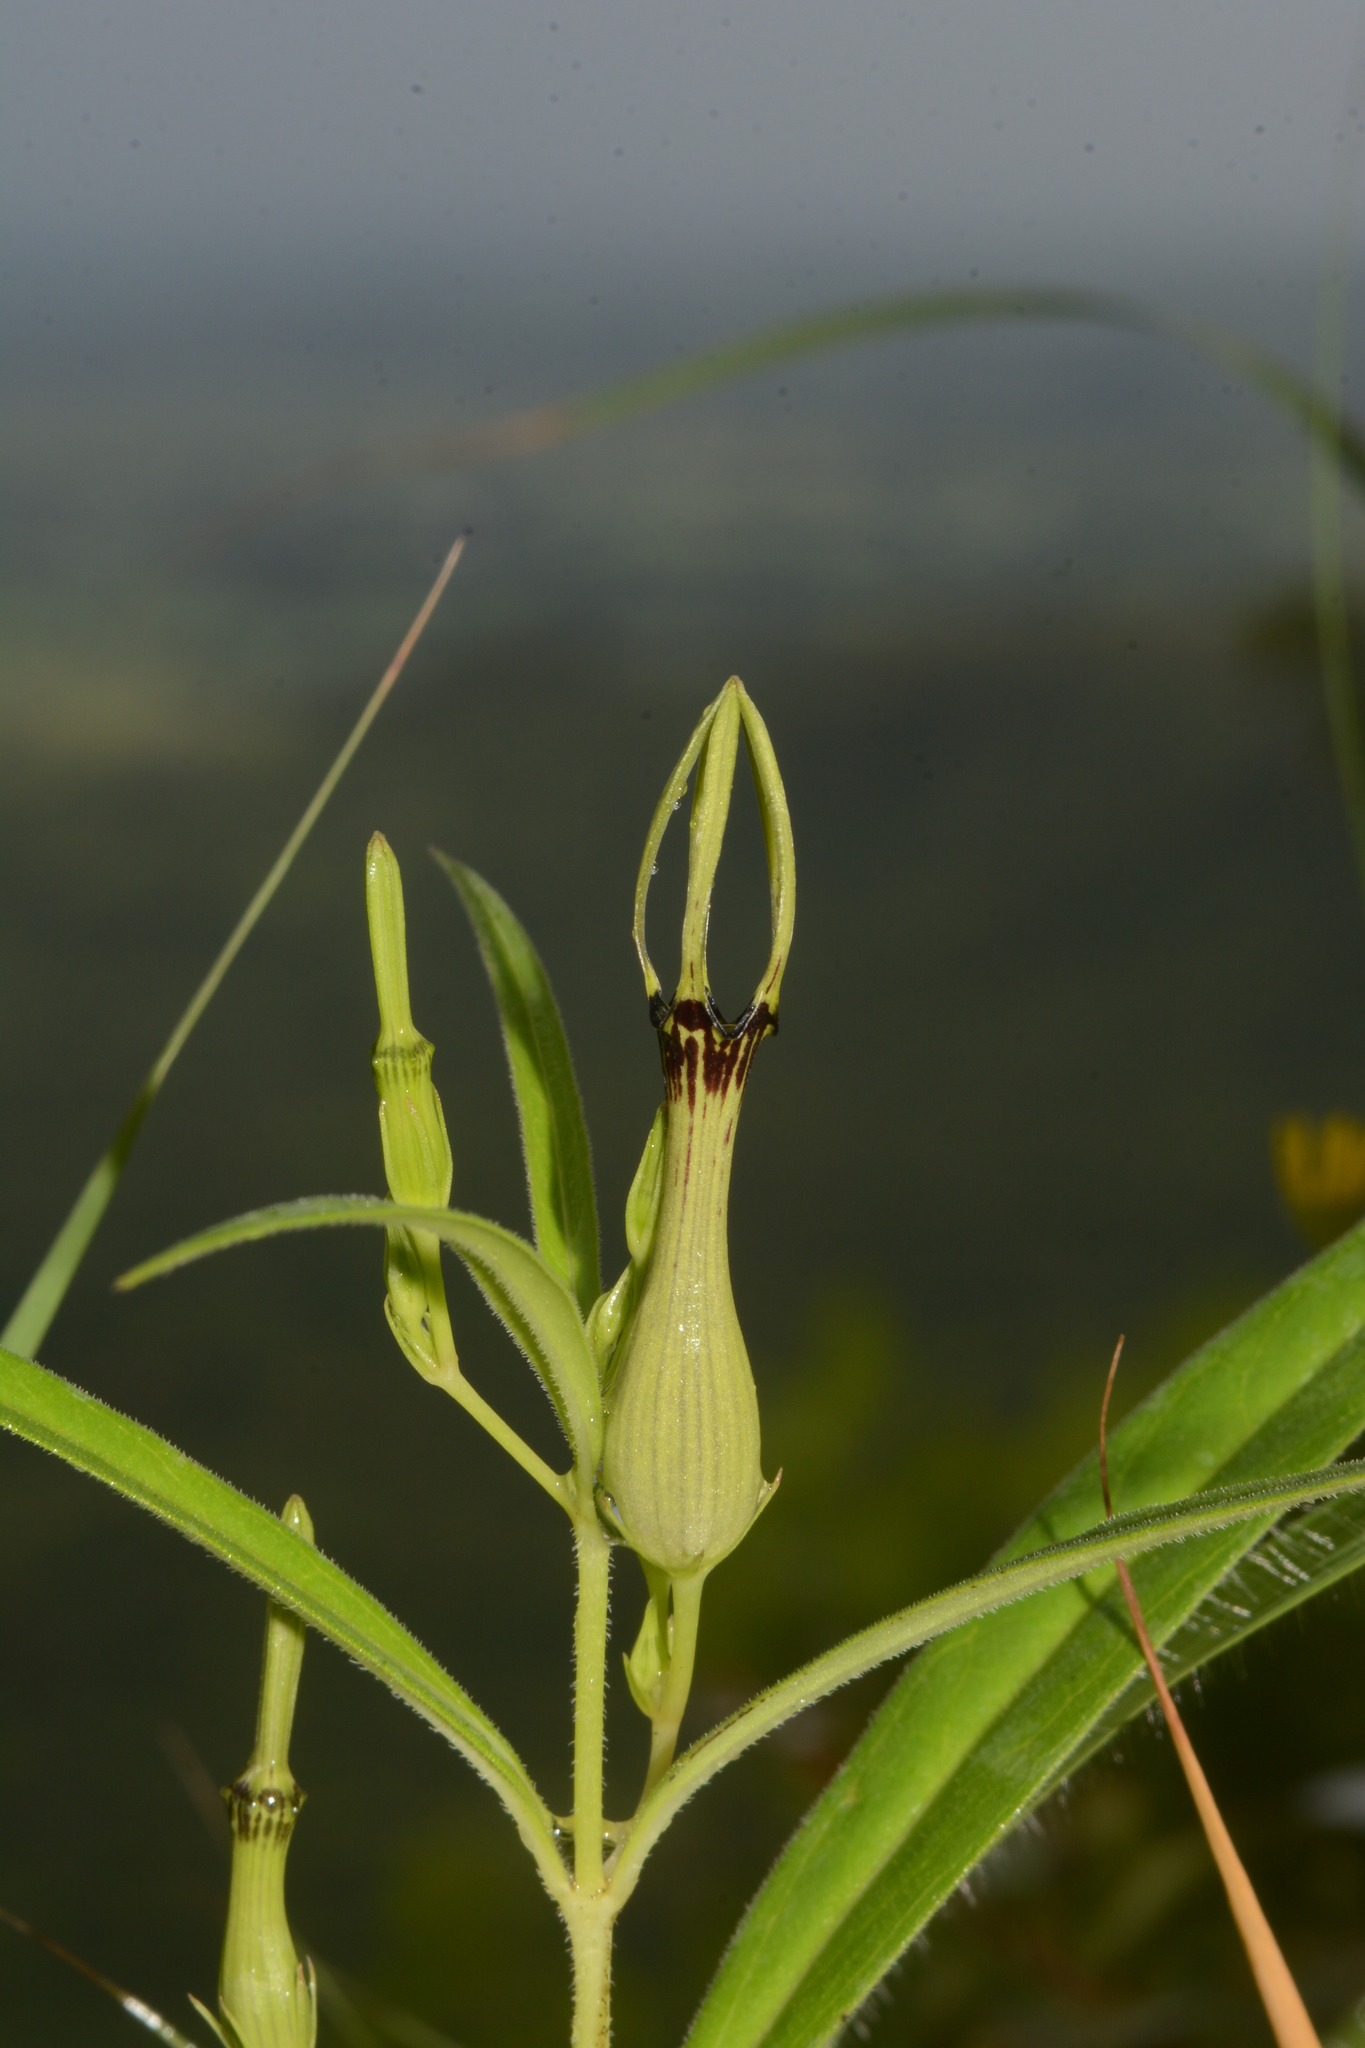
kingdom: Plantae
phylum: Tracheophyta
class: Magnoliopsida
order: Gentianales
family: Apocynaceae
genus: Ceropegia
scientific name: Ceropegia noorjahaniae
